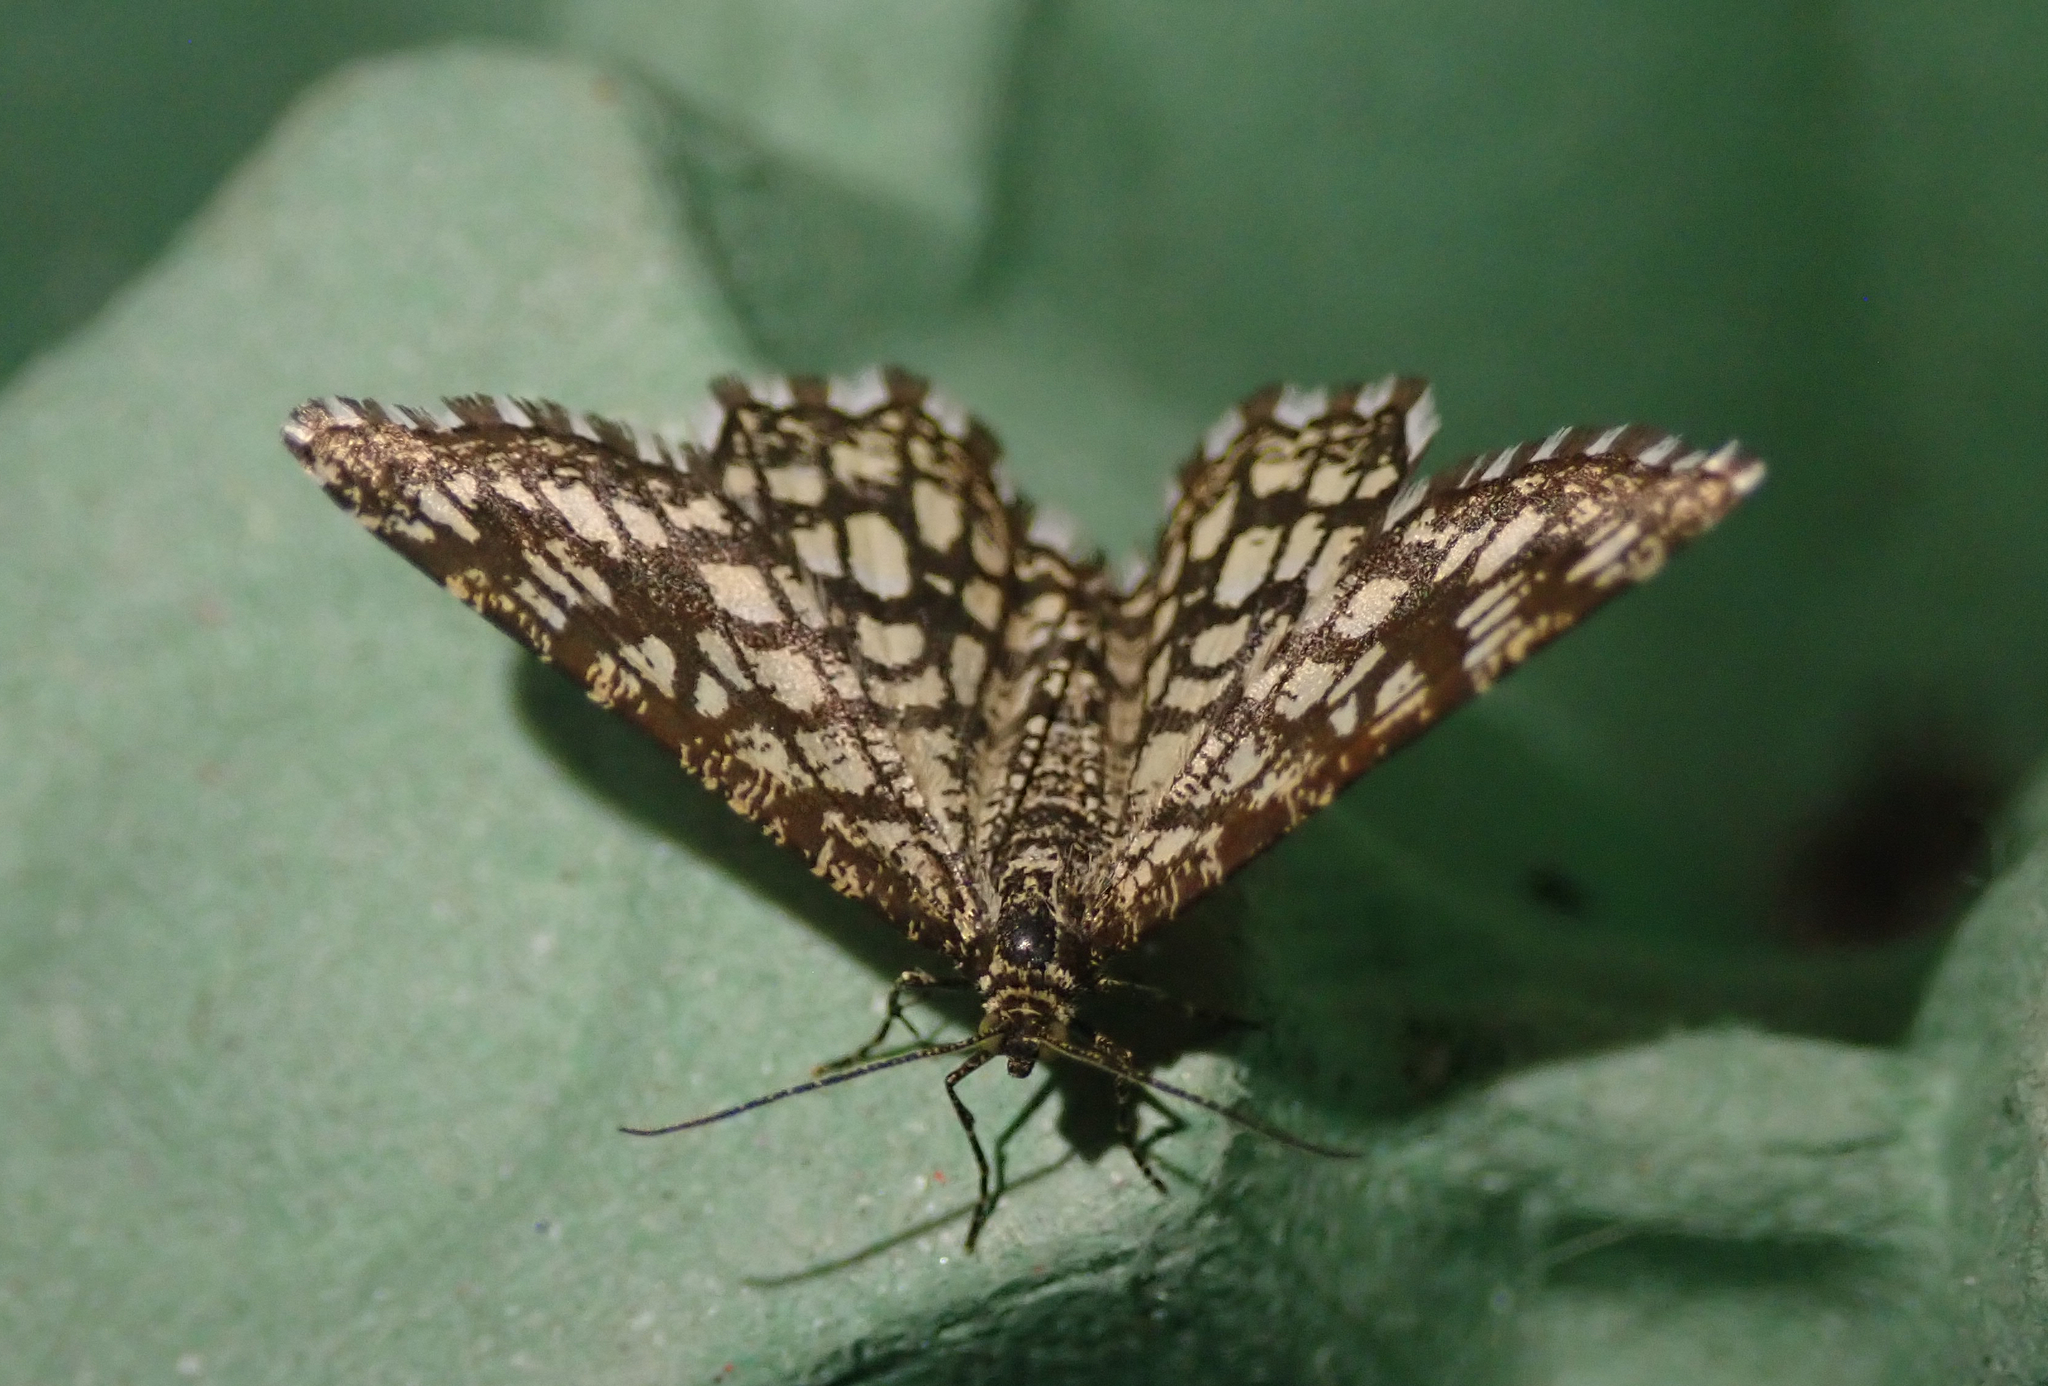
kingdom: Animalia
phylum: Arthropoda
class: Insecta
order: Lepidoptera
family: Geometridae
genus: Chiasmia
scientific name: Chiasmia clathrata
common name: Latticed heath
